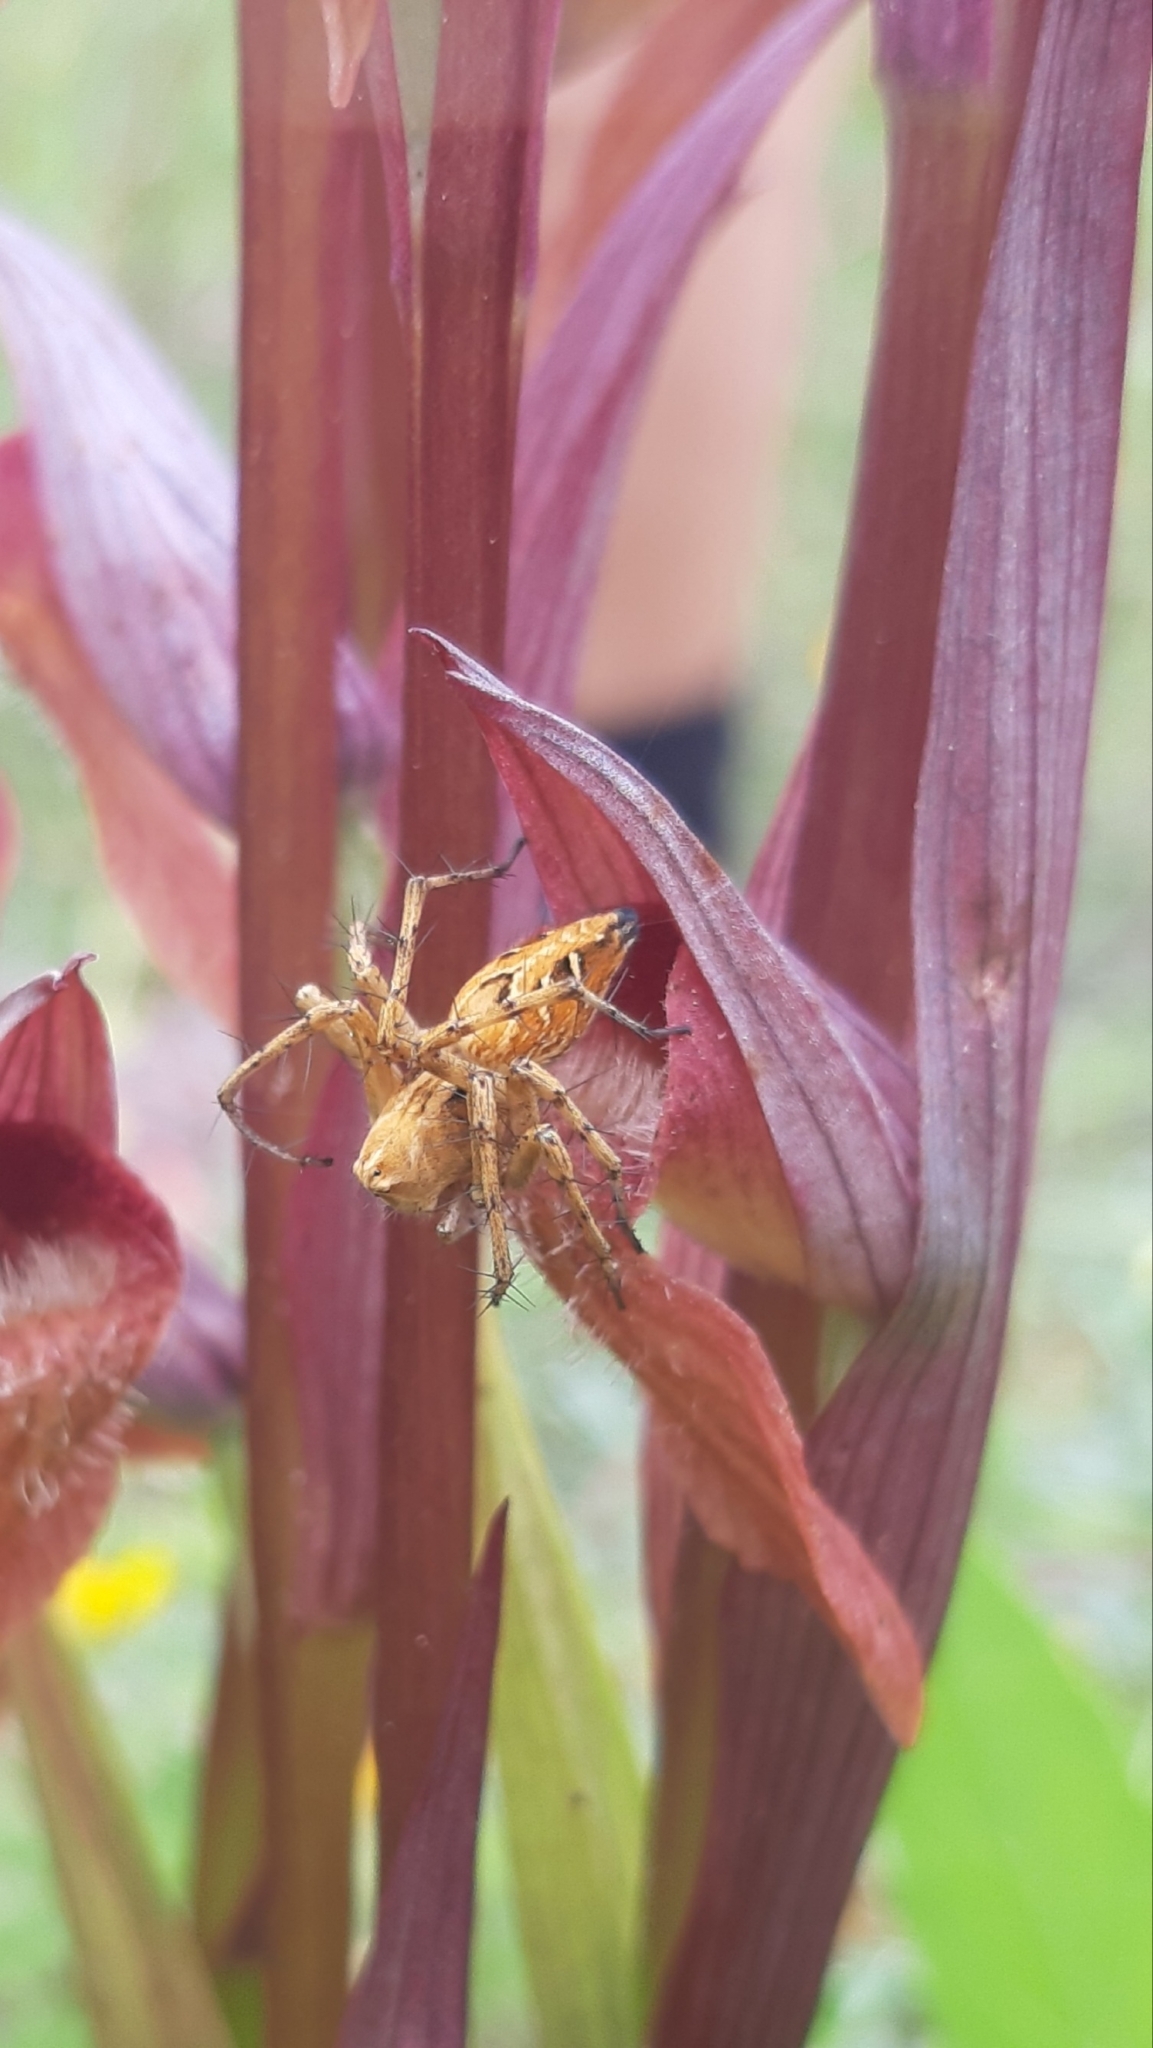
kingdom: Animalia
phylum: Arthropoda
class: Arachnida
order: Araneae
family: Oxyopidae
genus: Oxyopes
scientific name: Oxyopes heterophthalmus
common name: Lynx spider
